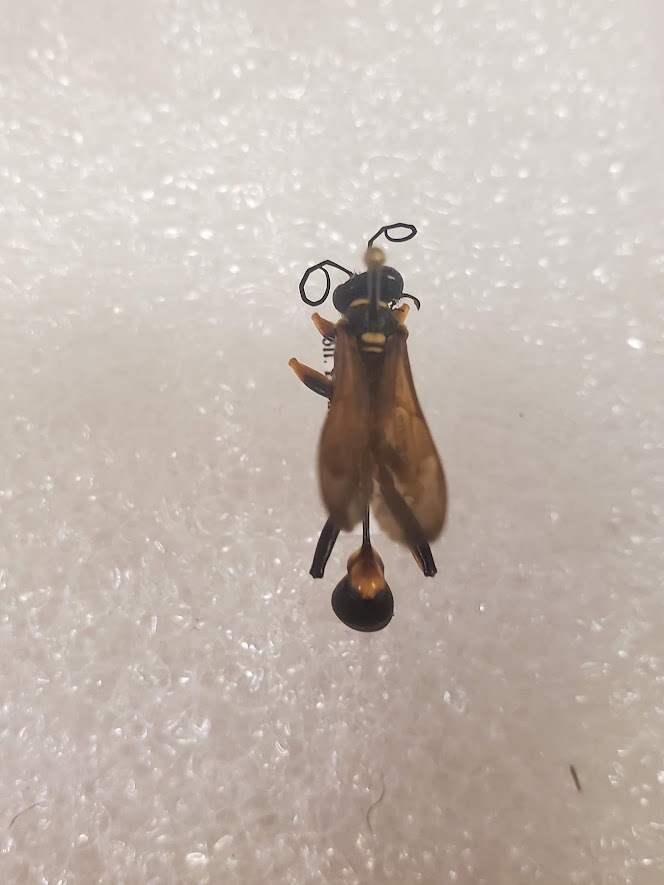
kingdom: Animalia
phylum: Arthropoda
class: Insecta
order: Hymenoptera
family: Sphecidae
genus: Sceliphron
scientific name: Sceliphron caementarium
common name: Mud dauber
